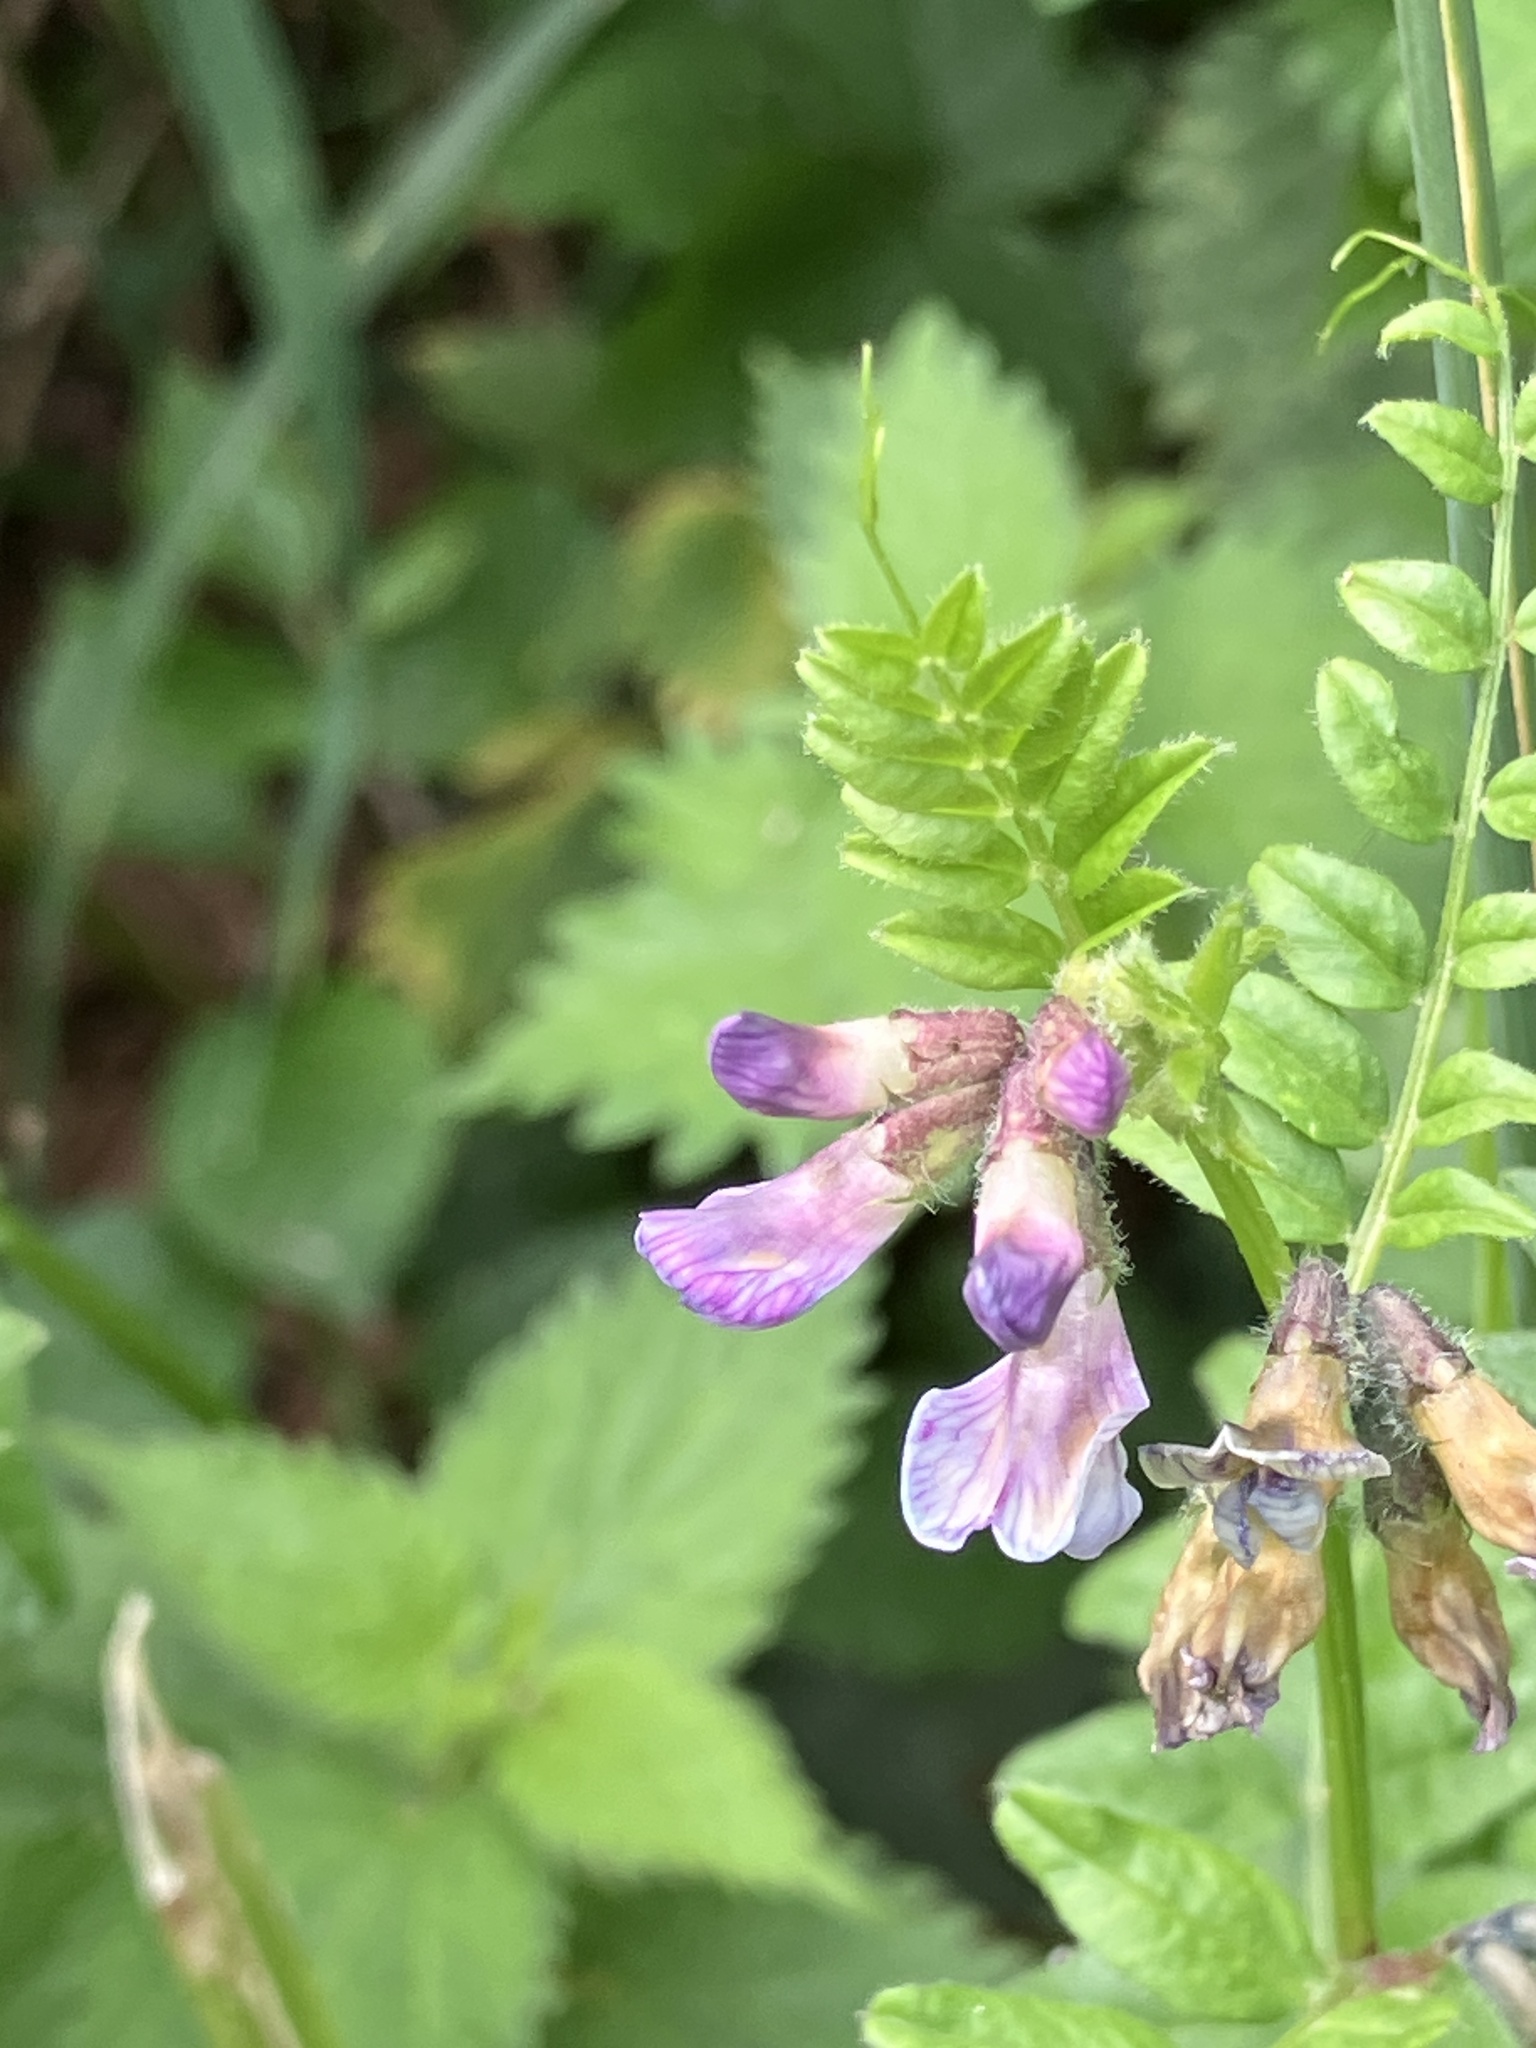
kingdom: Plantae
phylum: Tracheophyta
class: Magnoliopsida
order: Fabales
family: Fabaceae
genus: Vicia
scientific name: Vicia sepium
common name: Bush vetch
